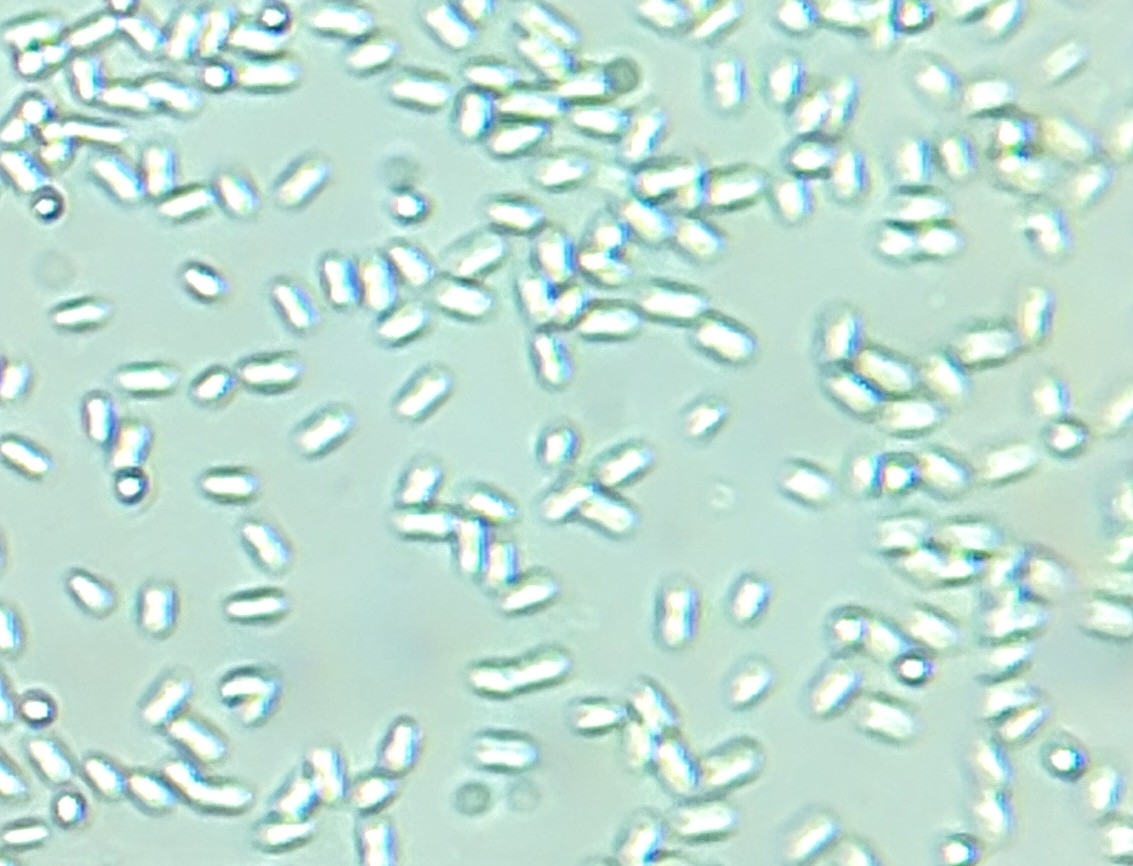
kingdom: Fungi
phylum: Ascomycota
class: Sordariomycetes
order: Diaporthales
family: Cryphonectriaceae
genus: Amphilogia
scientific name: Amphilogia gyrosa
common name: Orange hobnail canker
